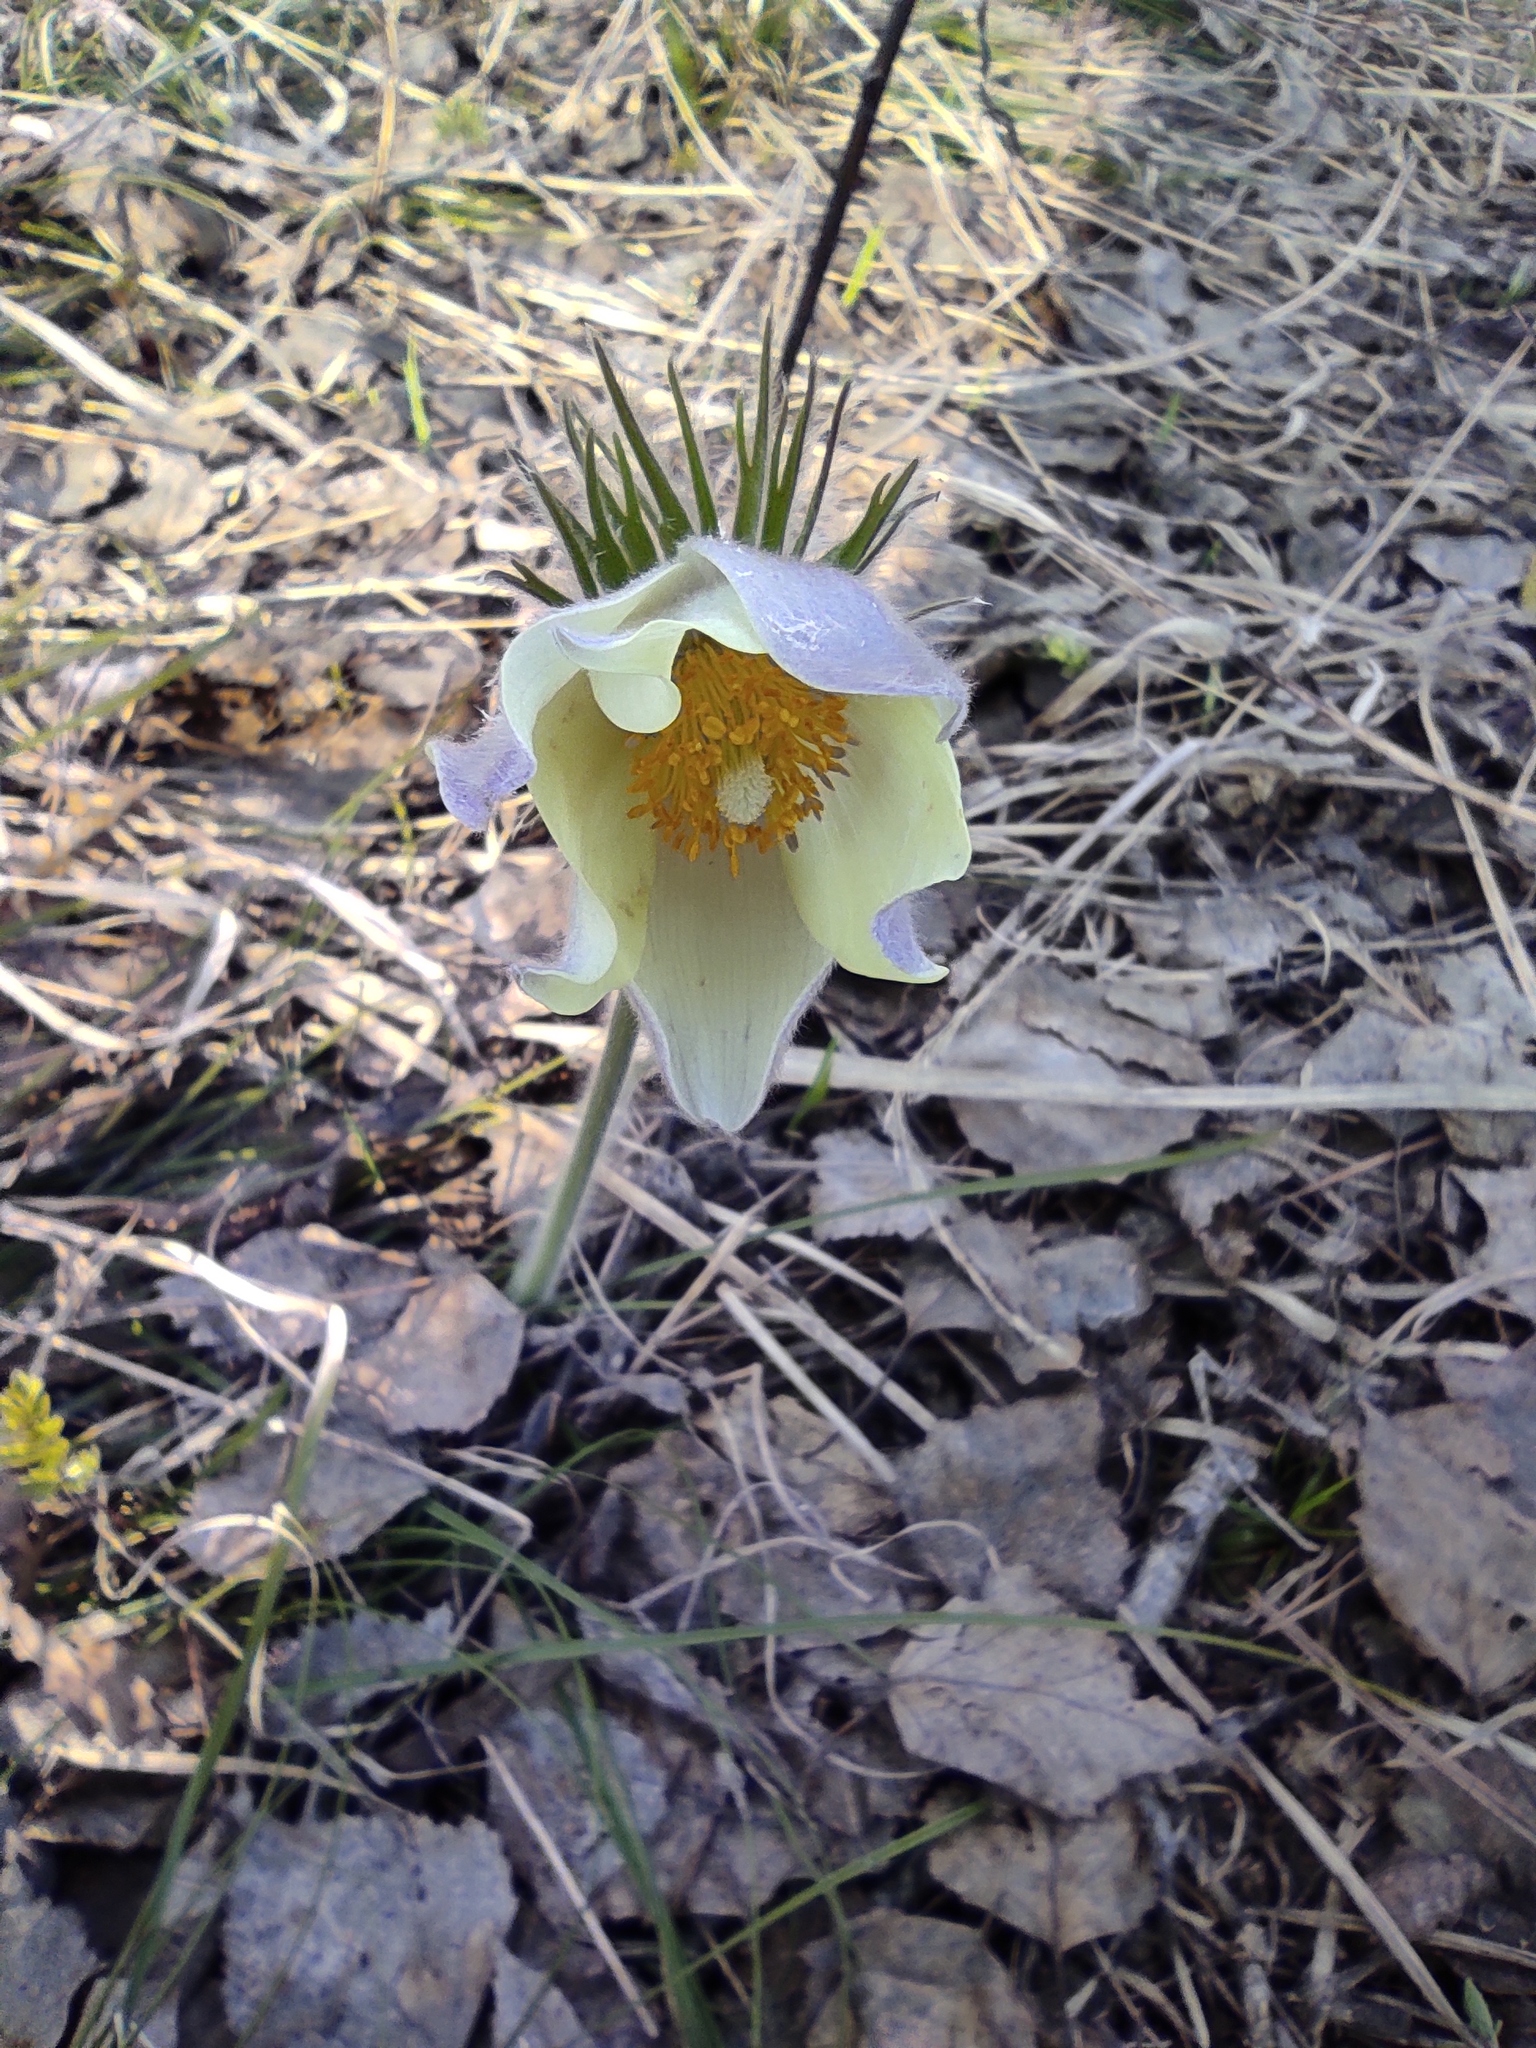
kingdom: Plantae
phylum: Tracheophyta
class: Magnoliopsida
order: Ranunculales
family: Ranunculaceae
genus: Pulsatilla
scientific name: Pulsatilla patens
